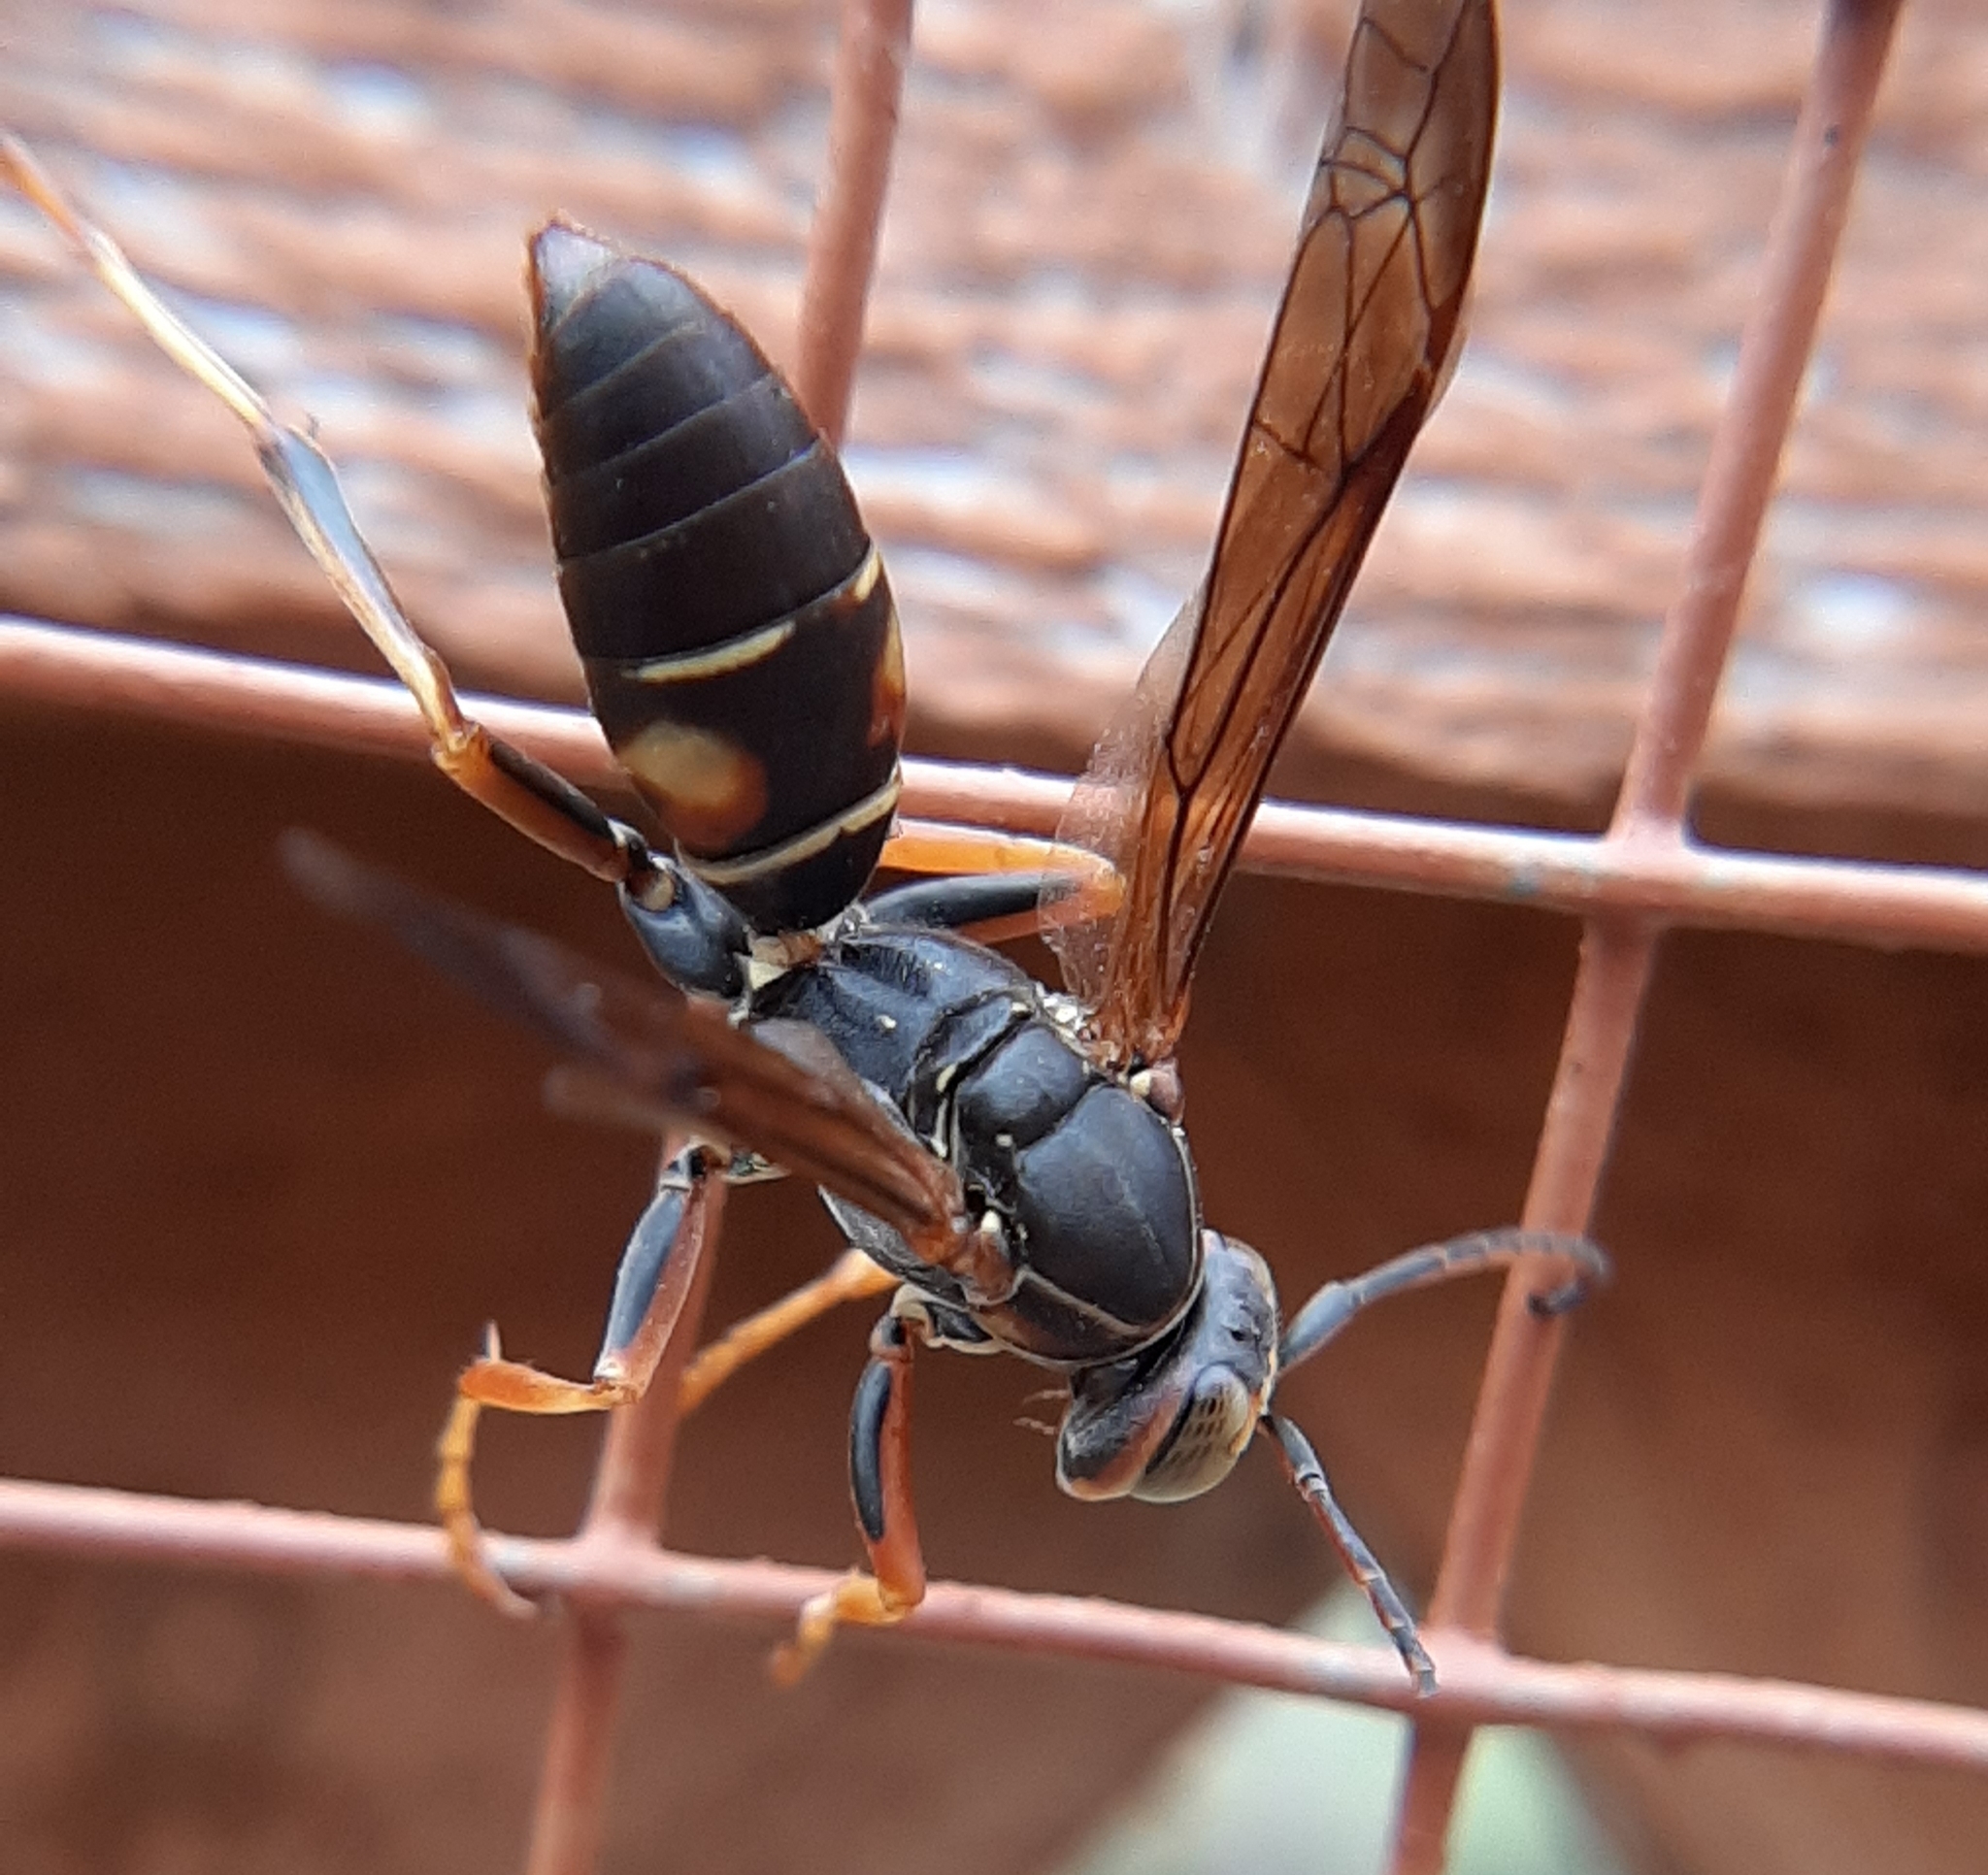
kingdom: Animalia
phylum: Arthropoda
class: Insecta
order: Hymenoptera
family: Eumenidae
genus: Polistes
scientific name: Polistes fuscatus
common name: Dark paper wasp
